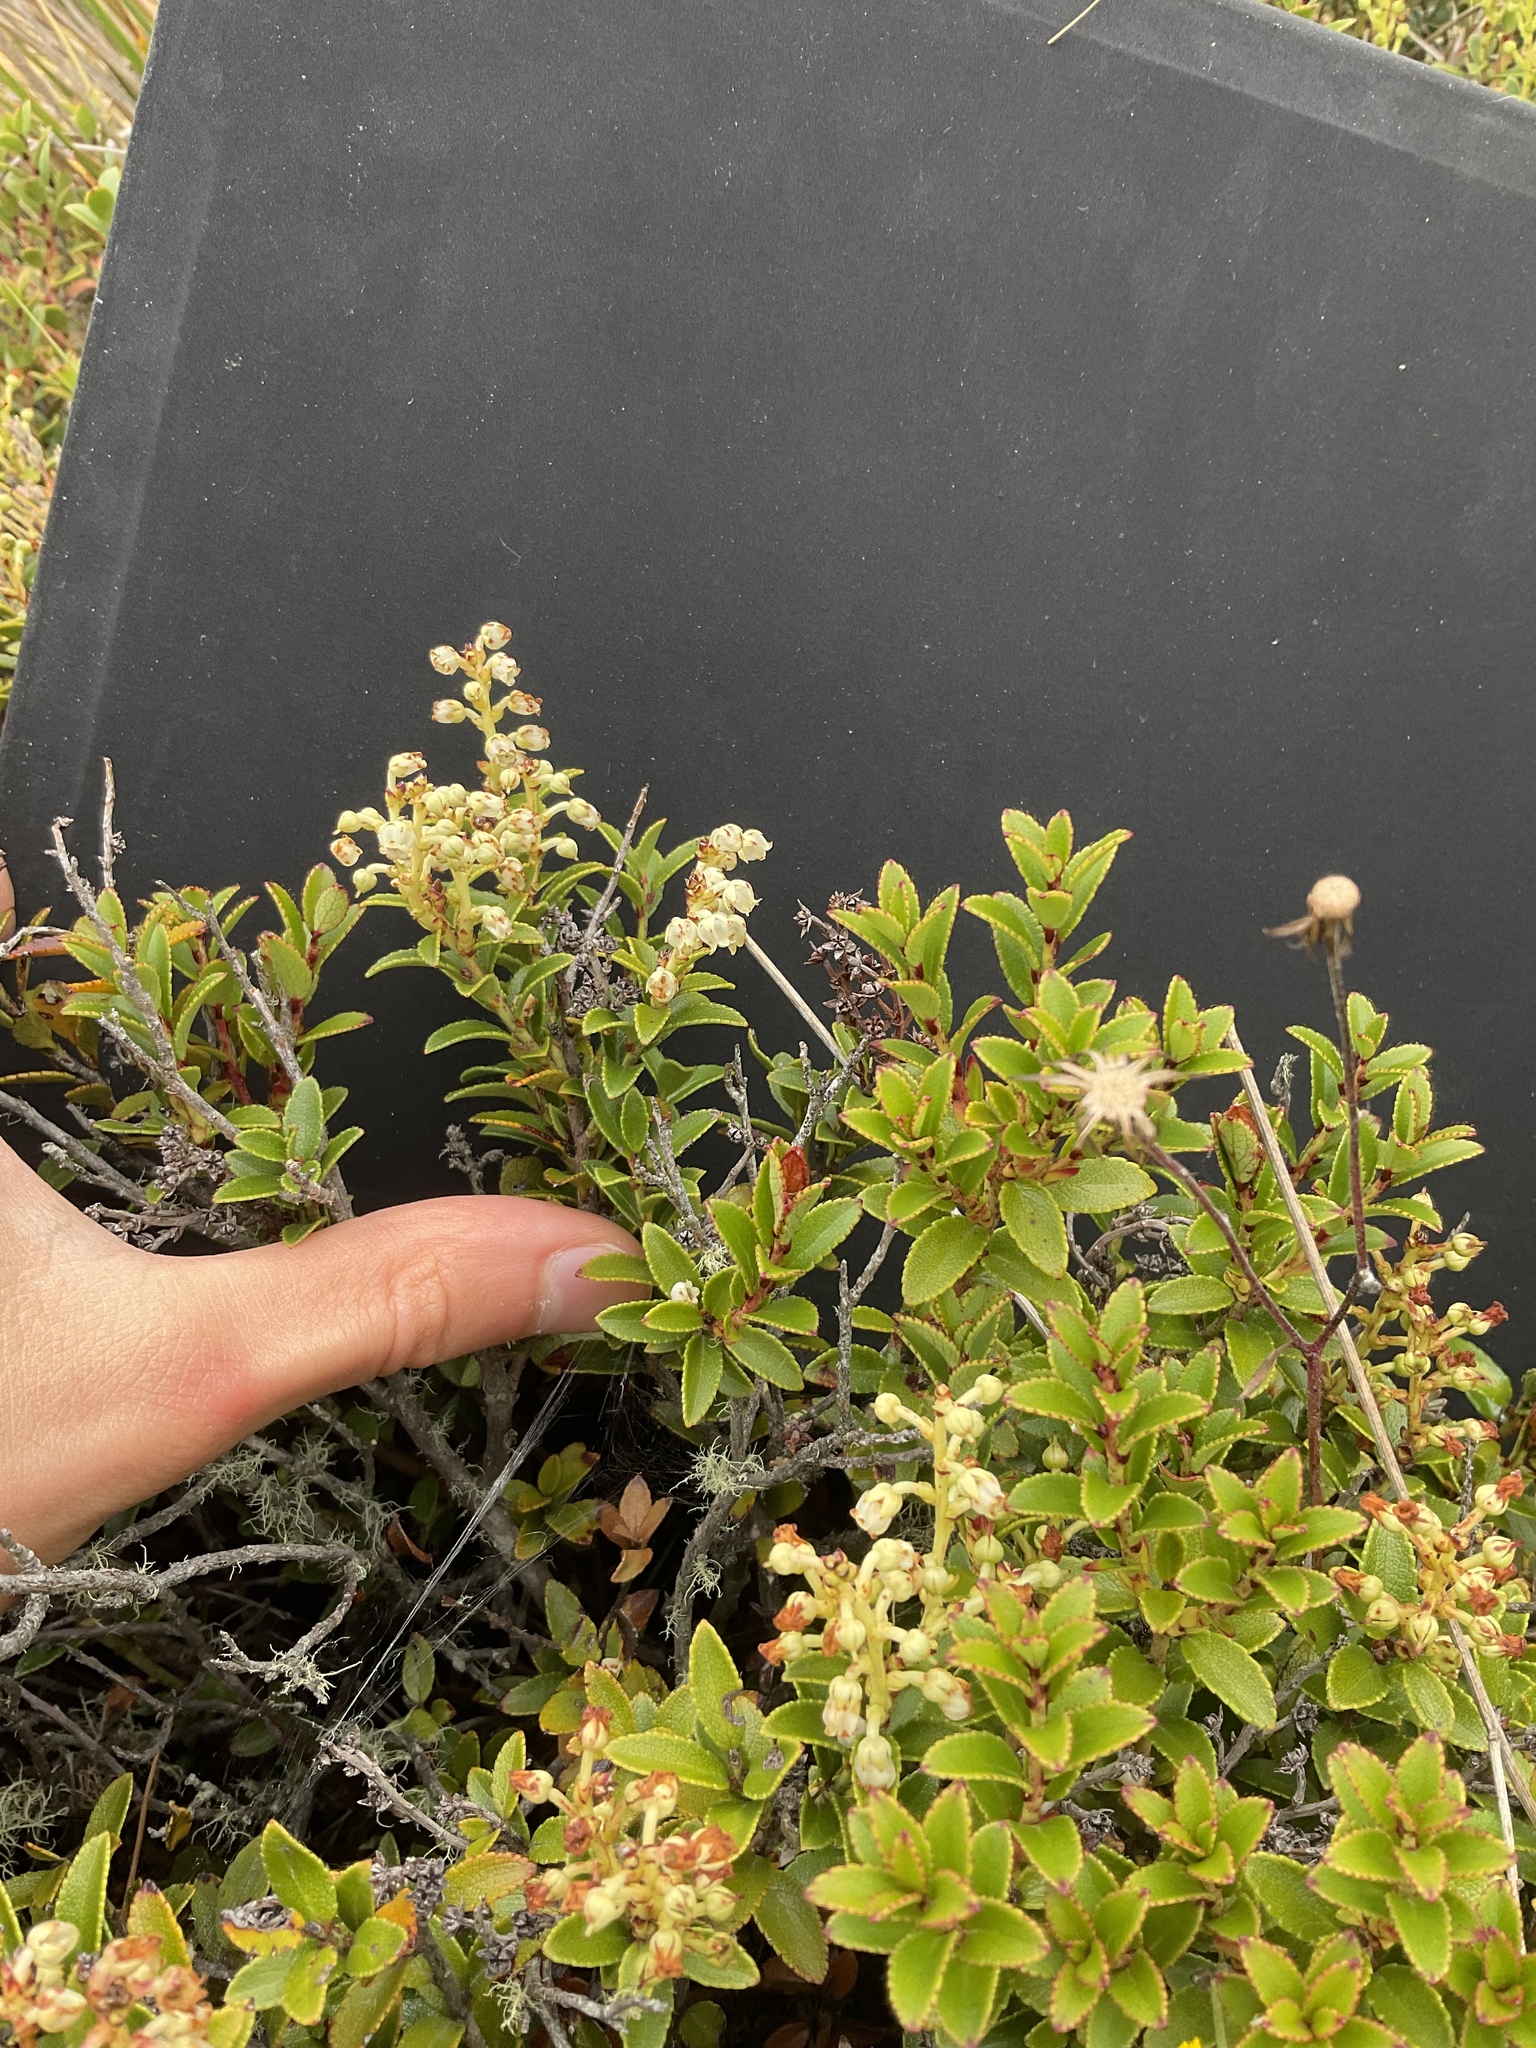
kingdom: Plantae
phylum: Tracheophyta
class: Magnoliopsida
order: Ericales
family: Ericaceae
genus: Gaultheria
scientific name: Gaultheria crassa
